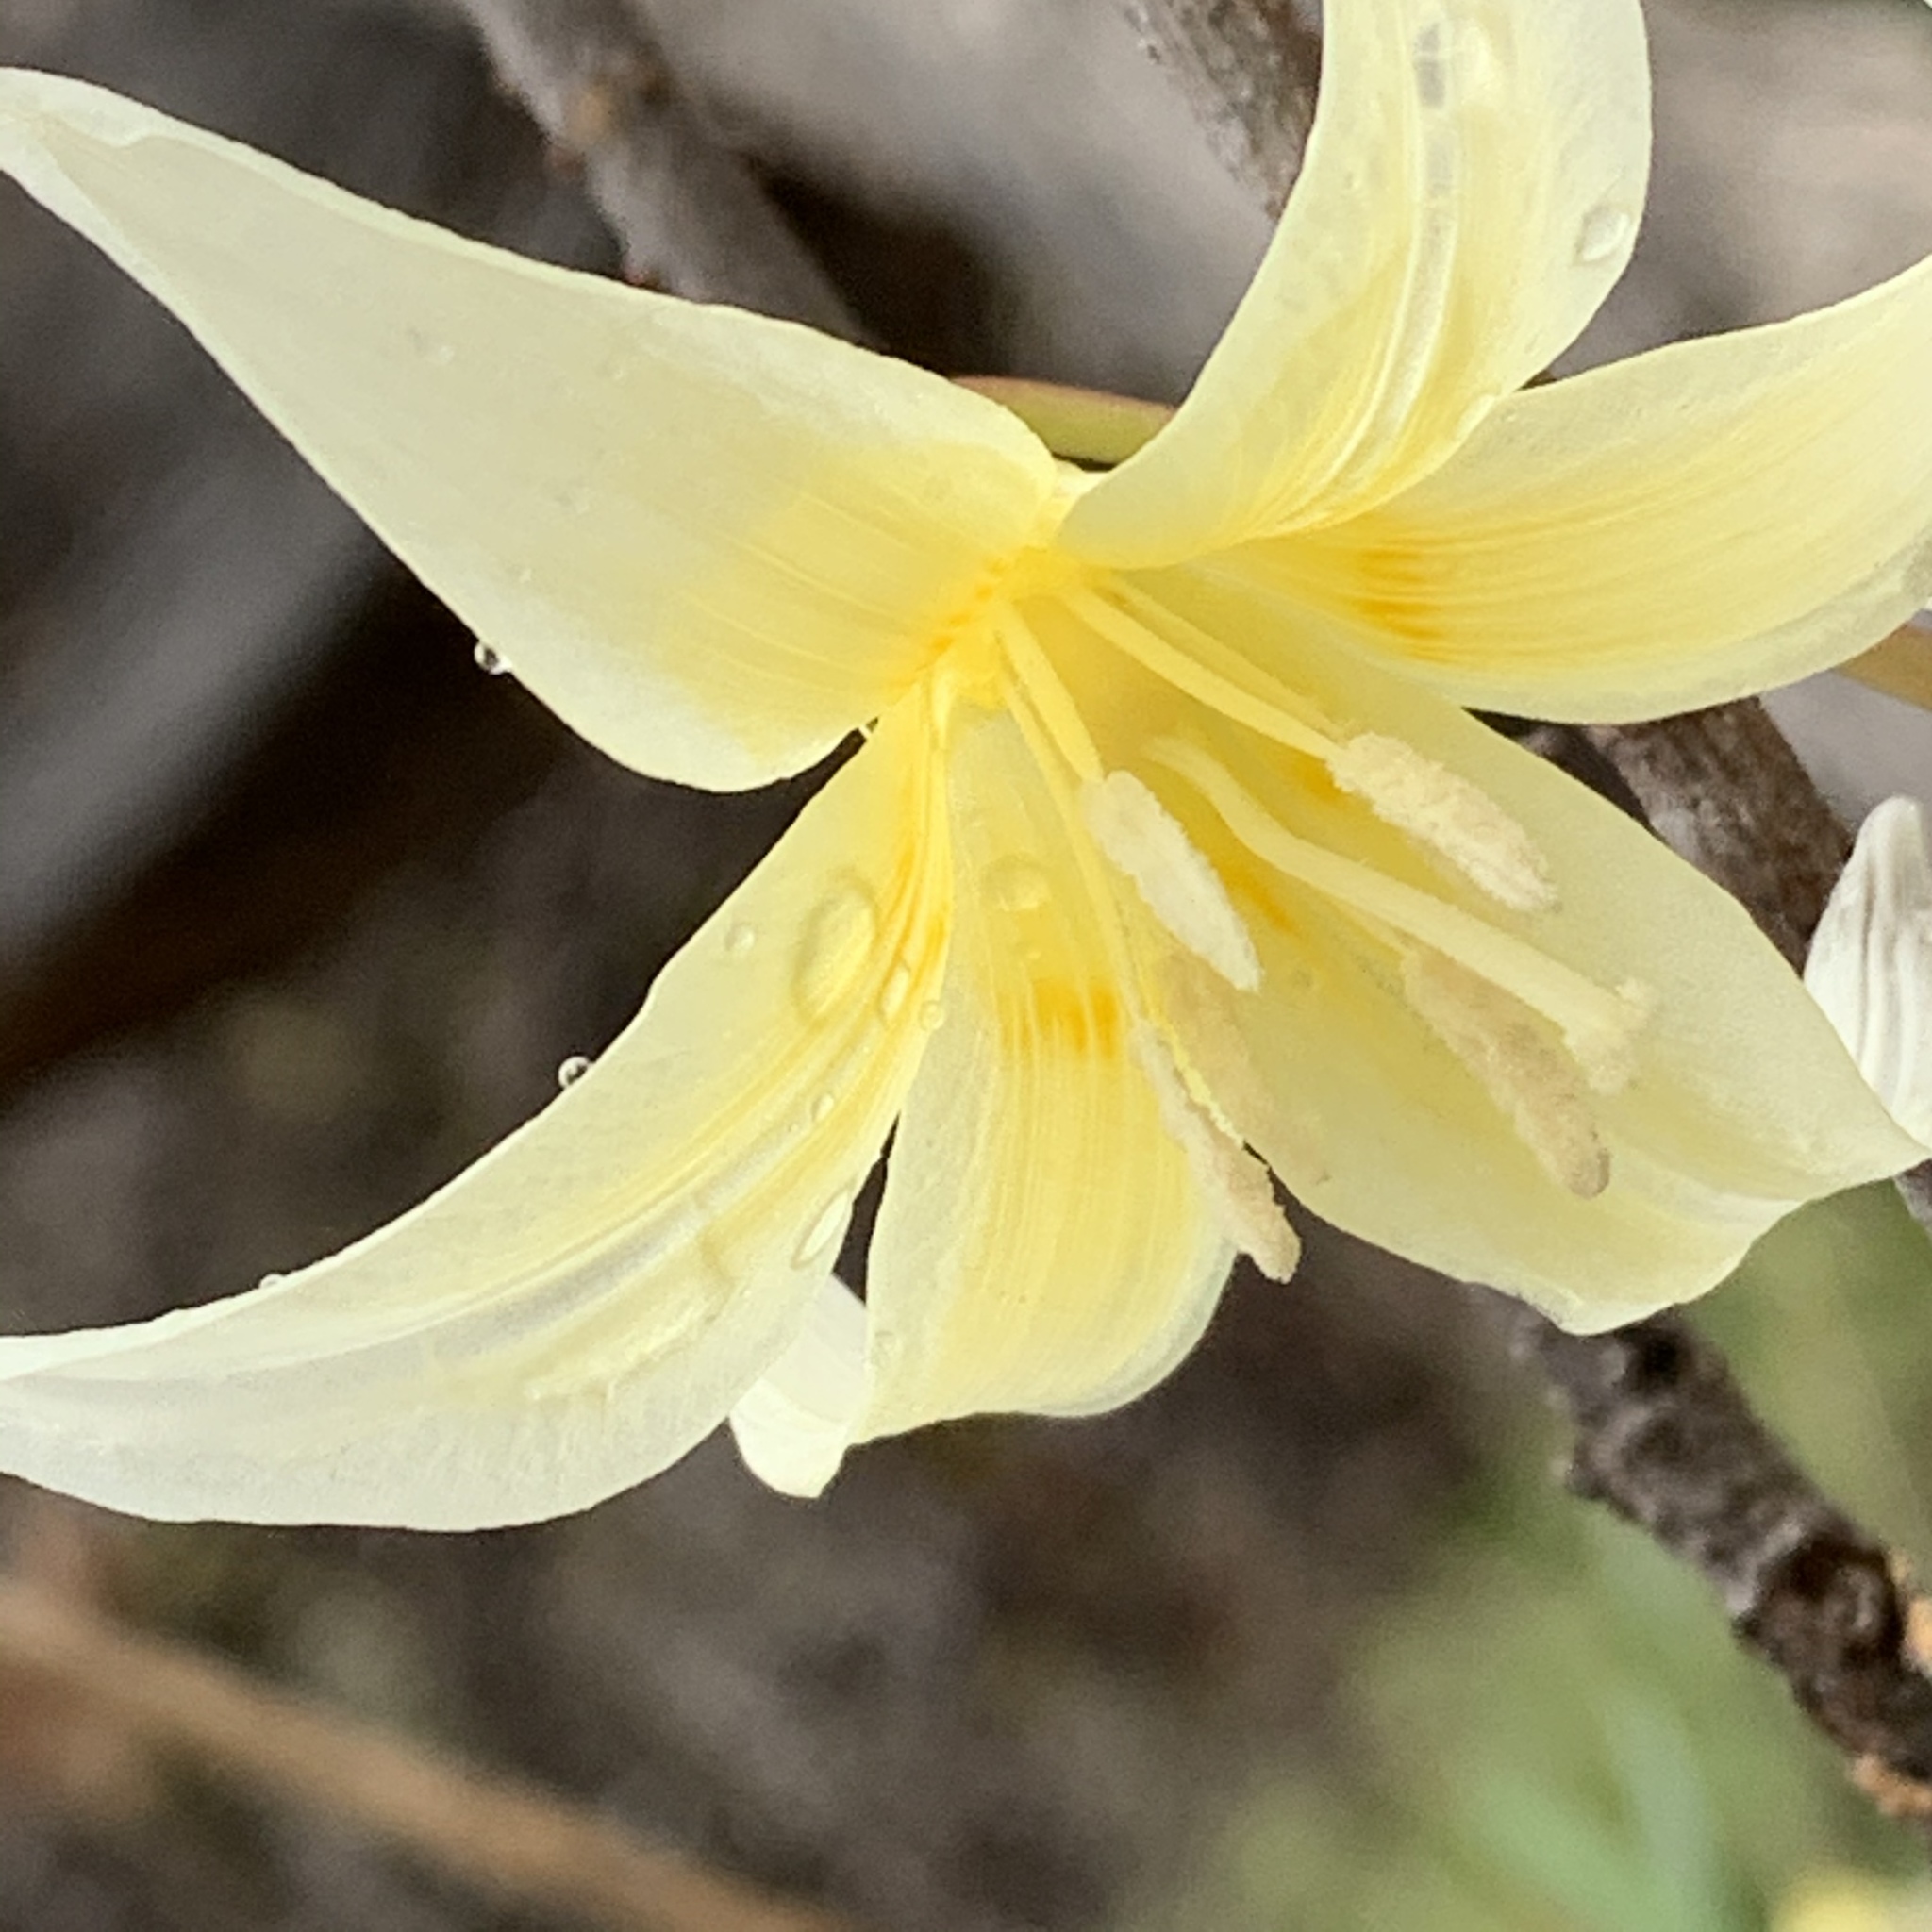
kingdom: Plantae
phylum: Tracheophyta
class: Liliopsida
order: Liliales
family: Liliaceae
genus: Erythronium
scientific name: Erythronium californicum
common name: Fawn-lily
